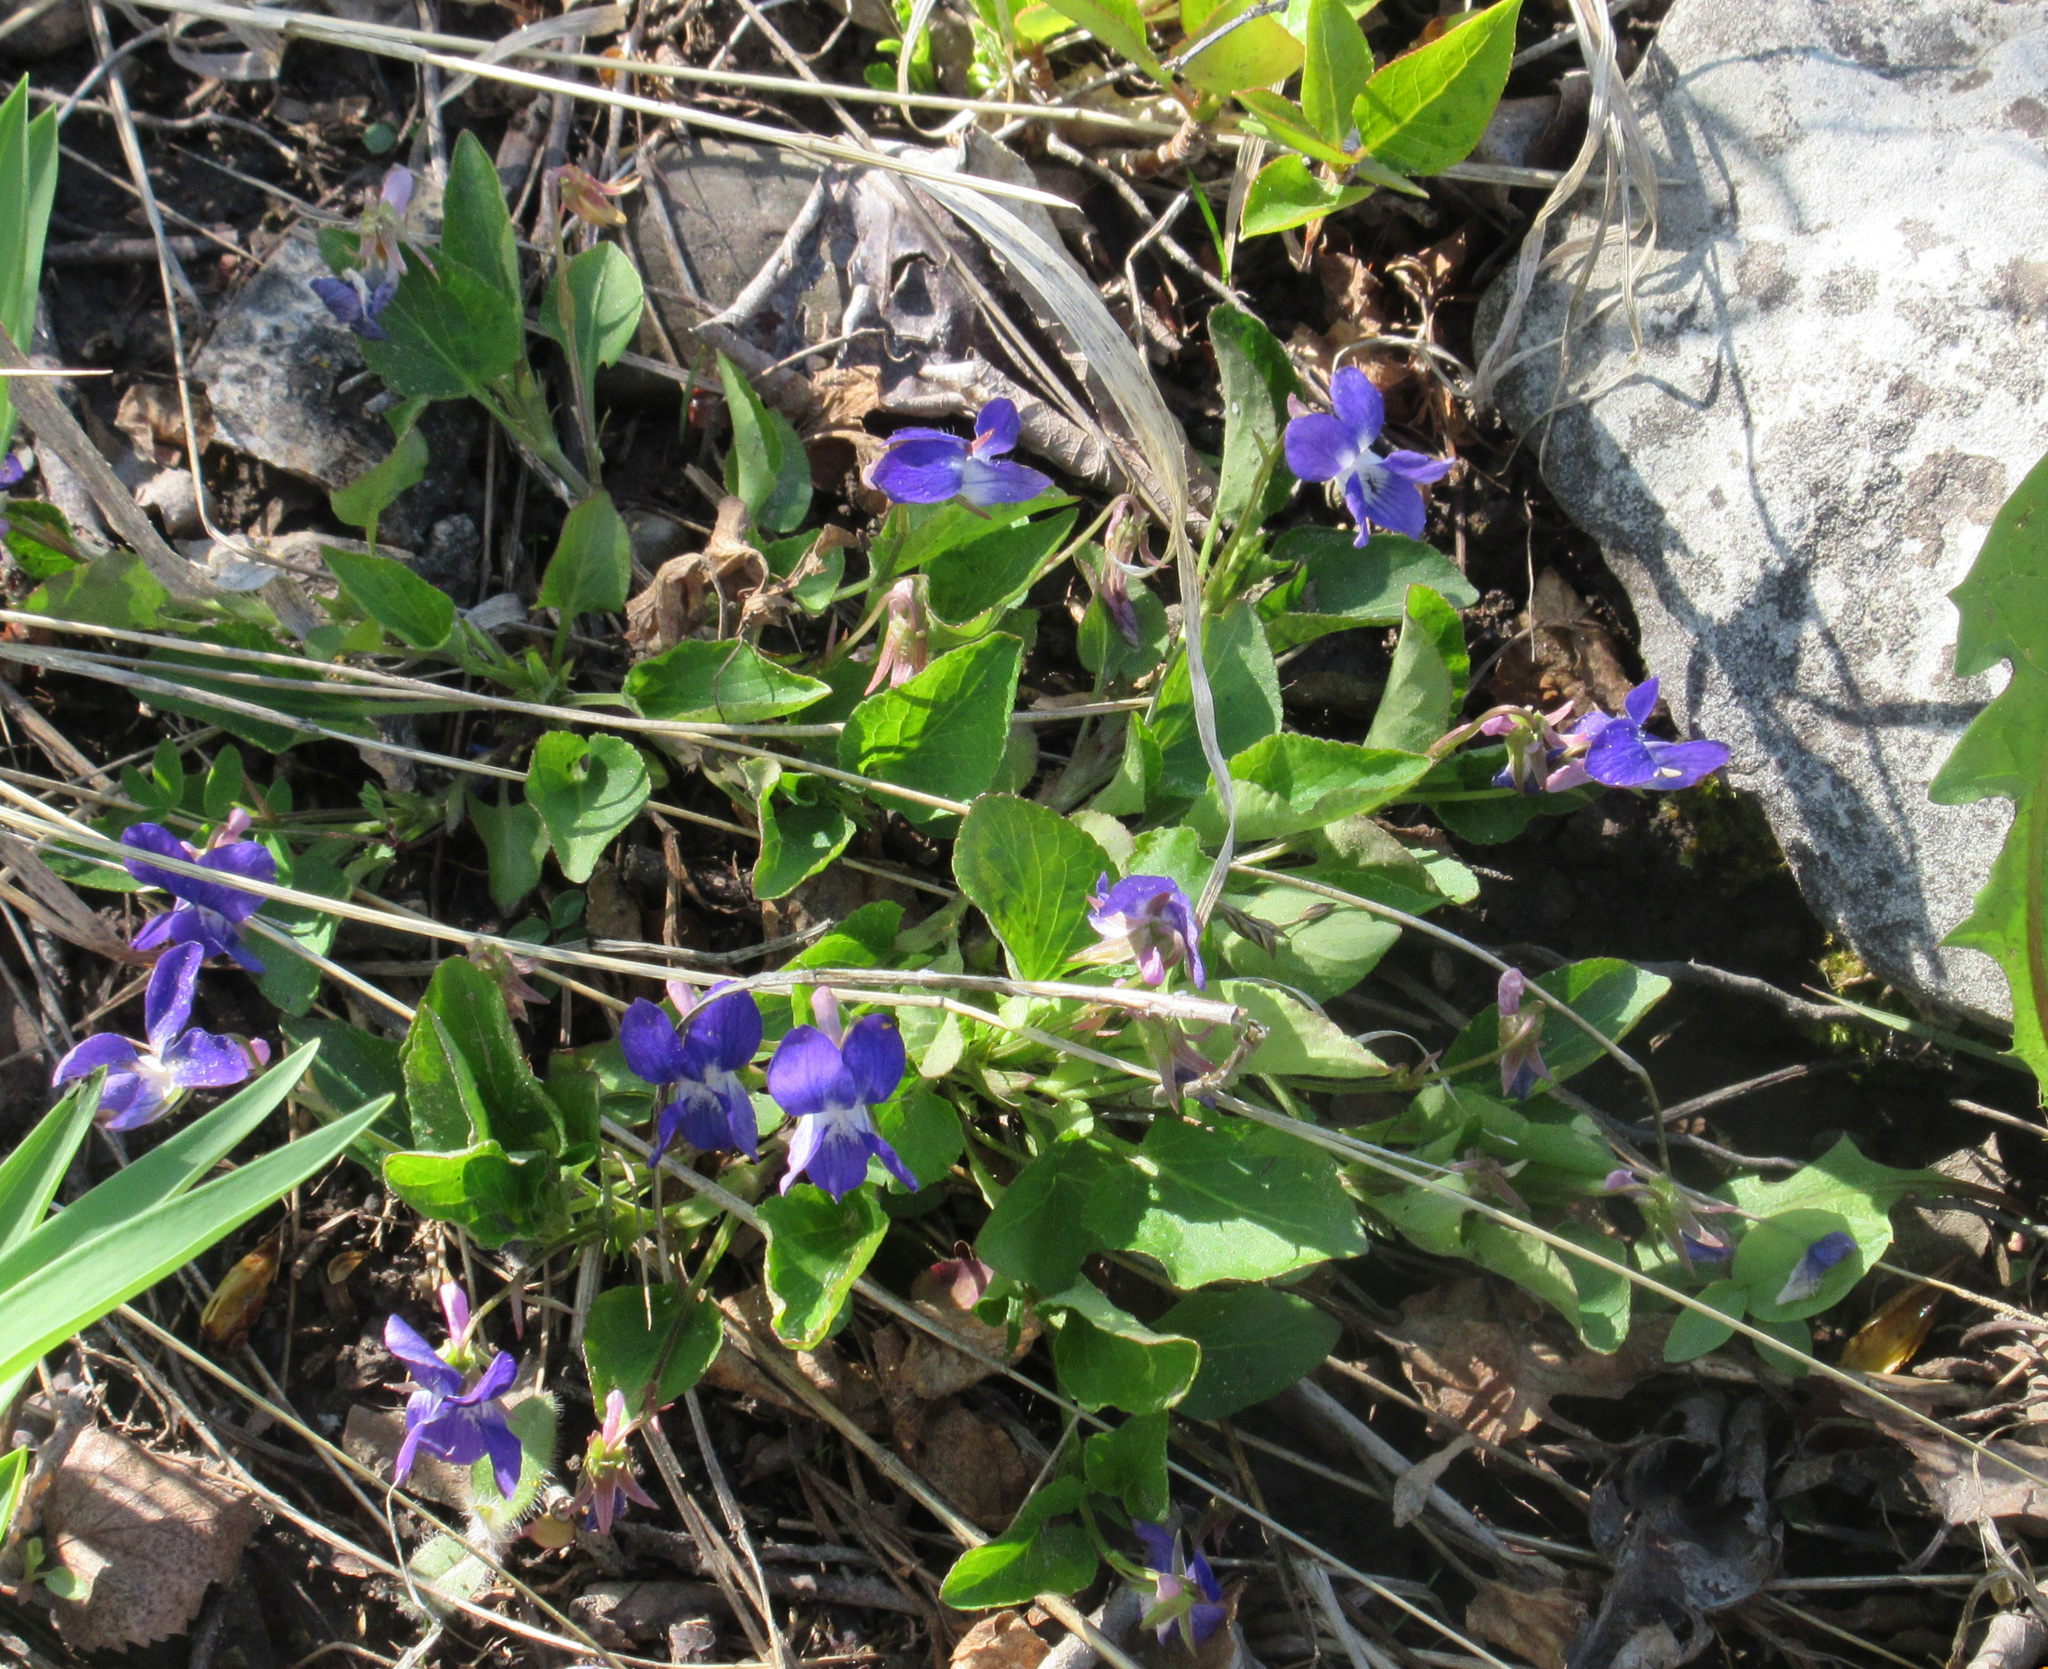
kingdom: Plantae
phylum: Tracheophyta
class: Magnoliopsida
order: Malpighiales
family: Violaceae
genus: Viola
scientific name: Viola adunca
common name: Sand violet
